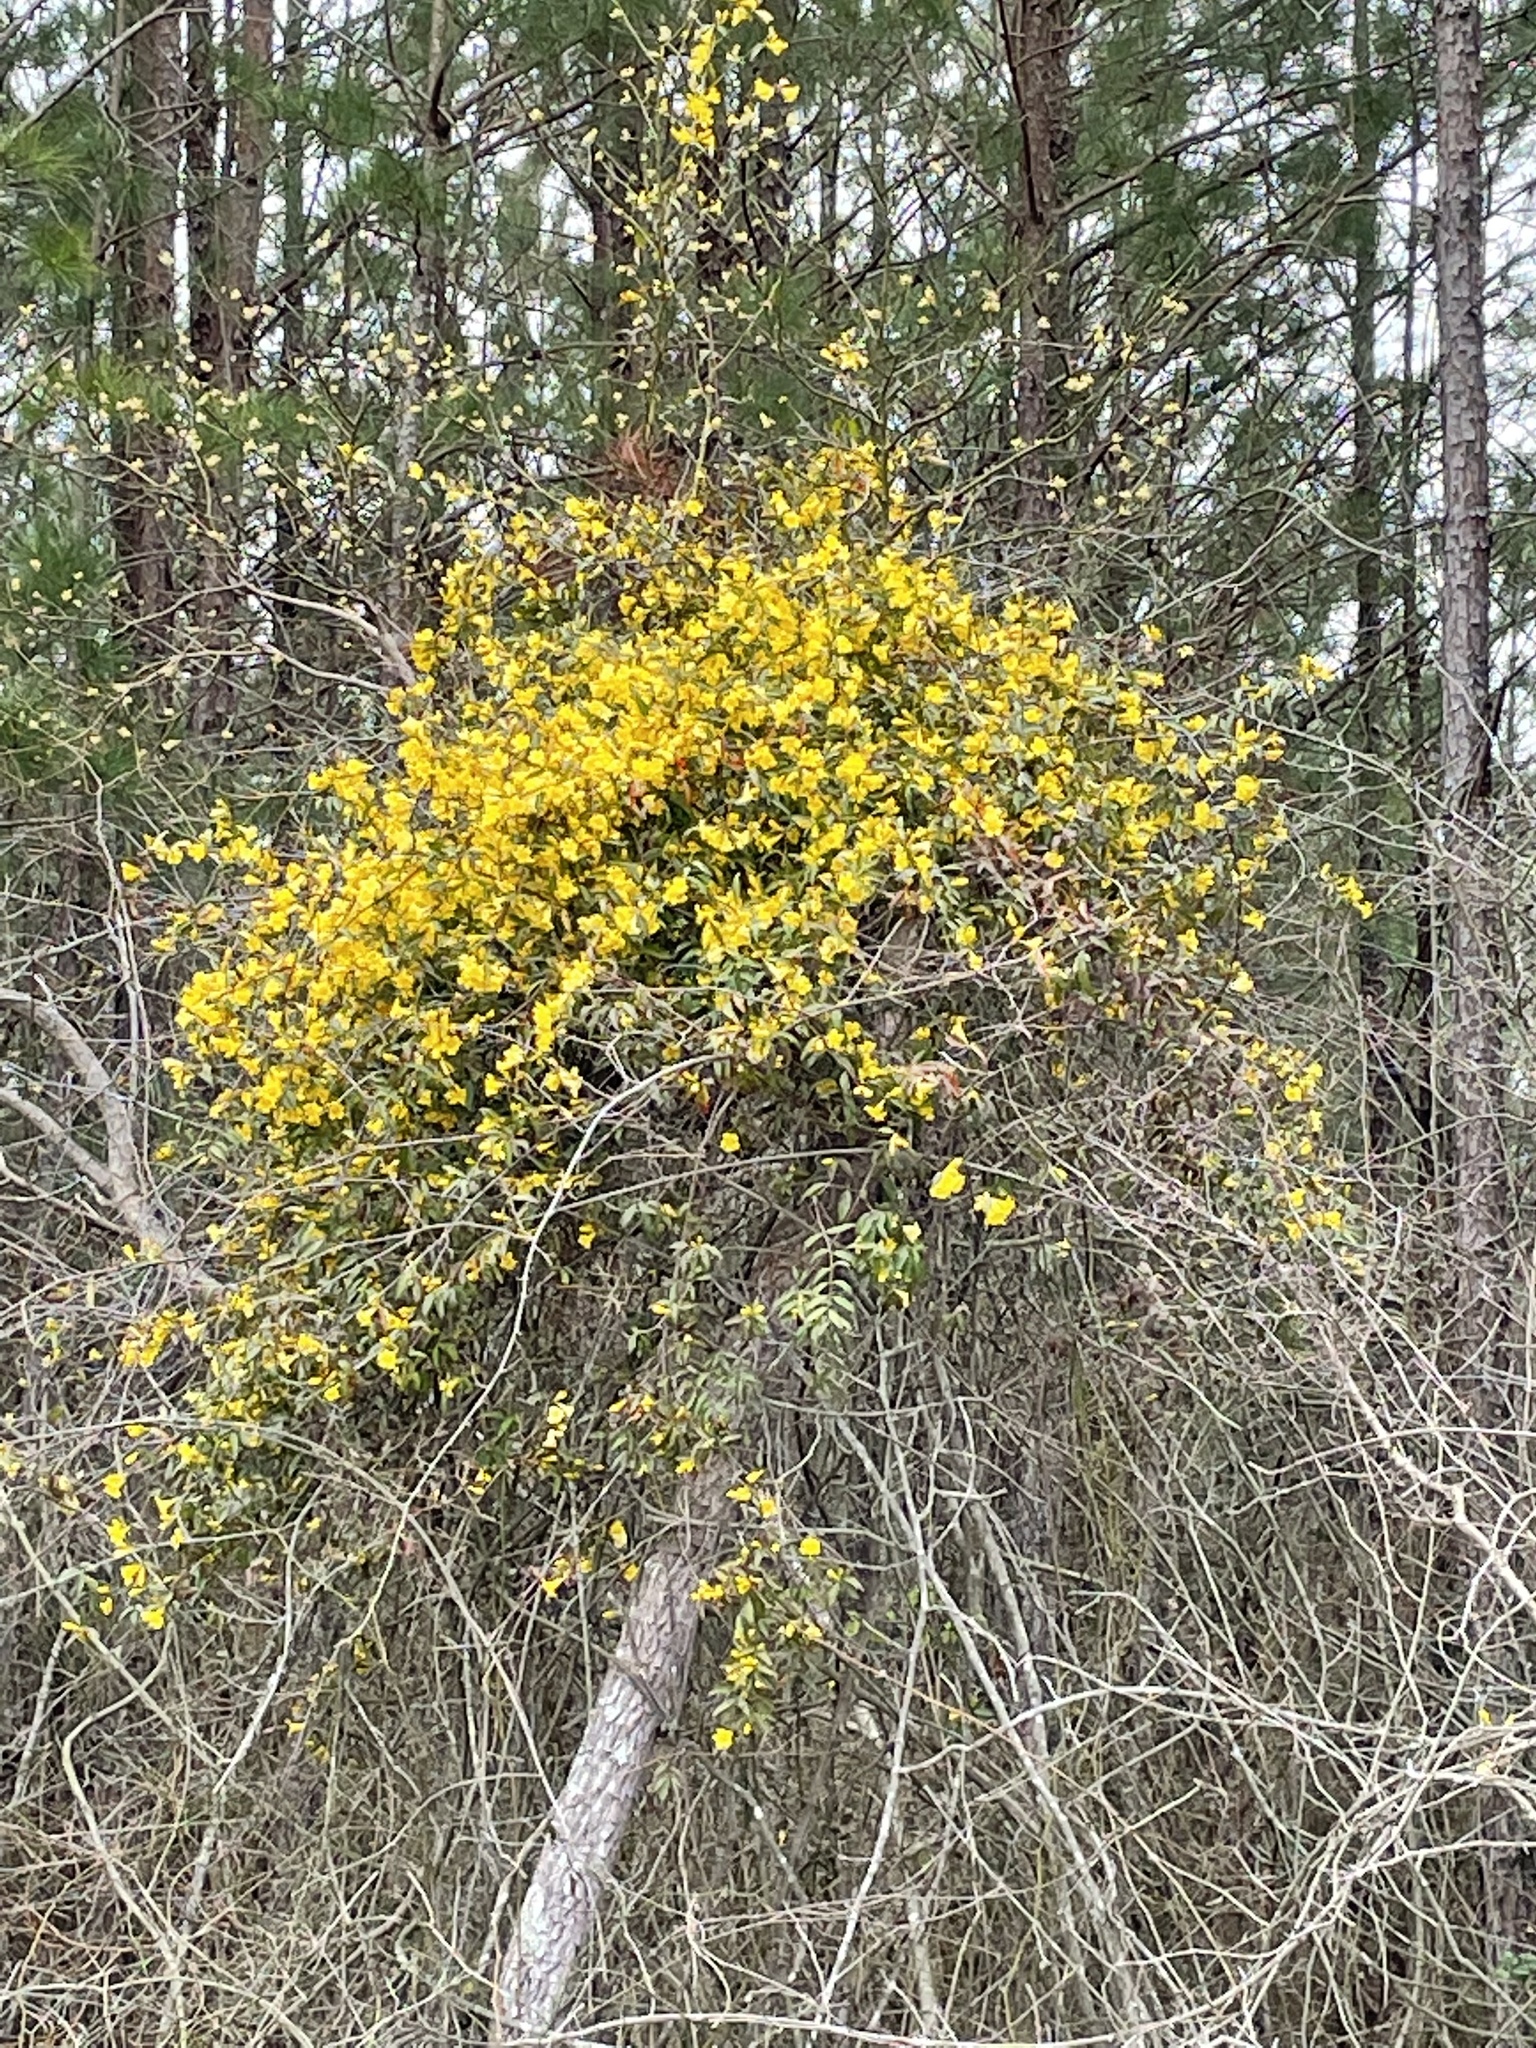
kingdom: Plantae
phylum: Tracheophyta
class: Magnoliopsida
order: Gentianales
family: Gelsemiaceae
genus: Gelsemium
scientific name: Gelsemium sempervirens
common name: Carolina-jasmine
